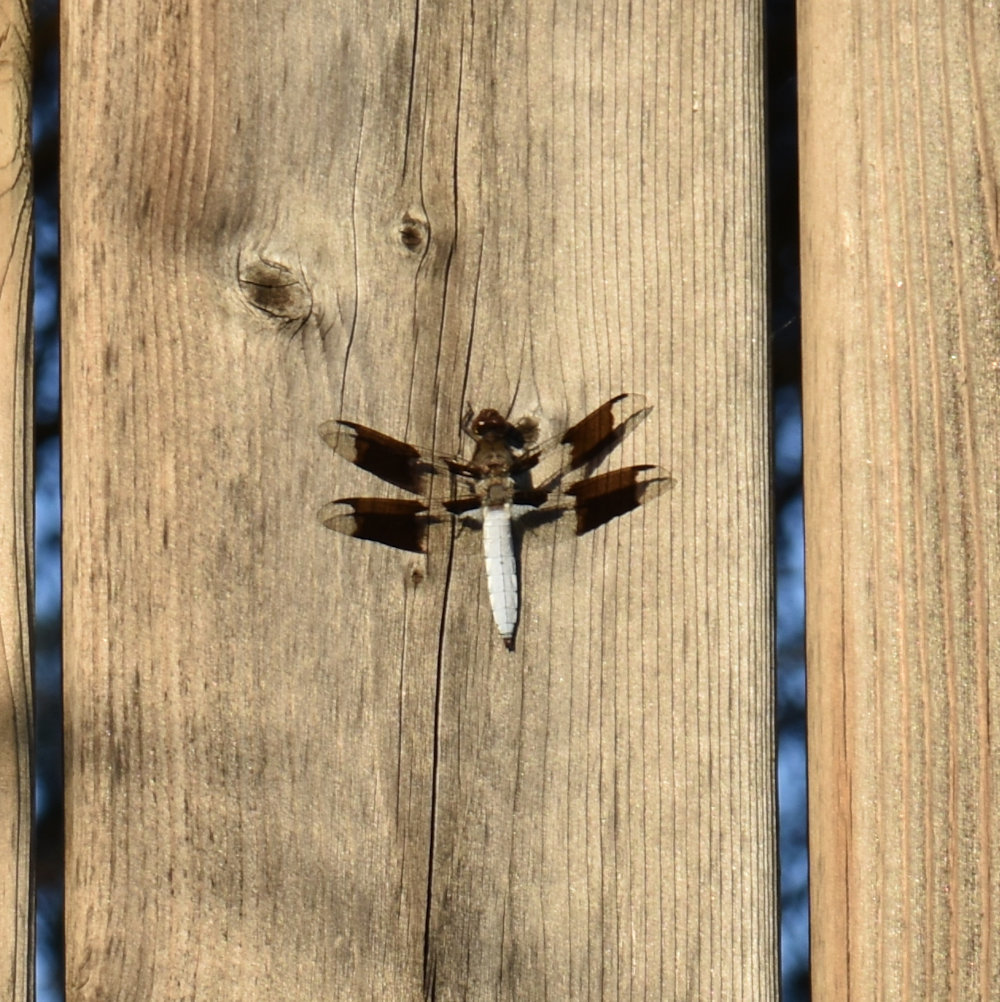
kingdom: Animalia
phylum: Arthropoda
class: Insecta
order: Odonata
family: Libellulidae
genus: Plathemis
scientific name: Plathemis lydia
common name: Common whitetail
